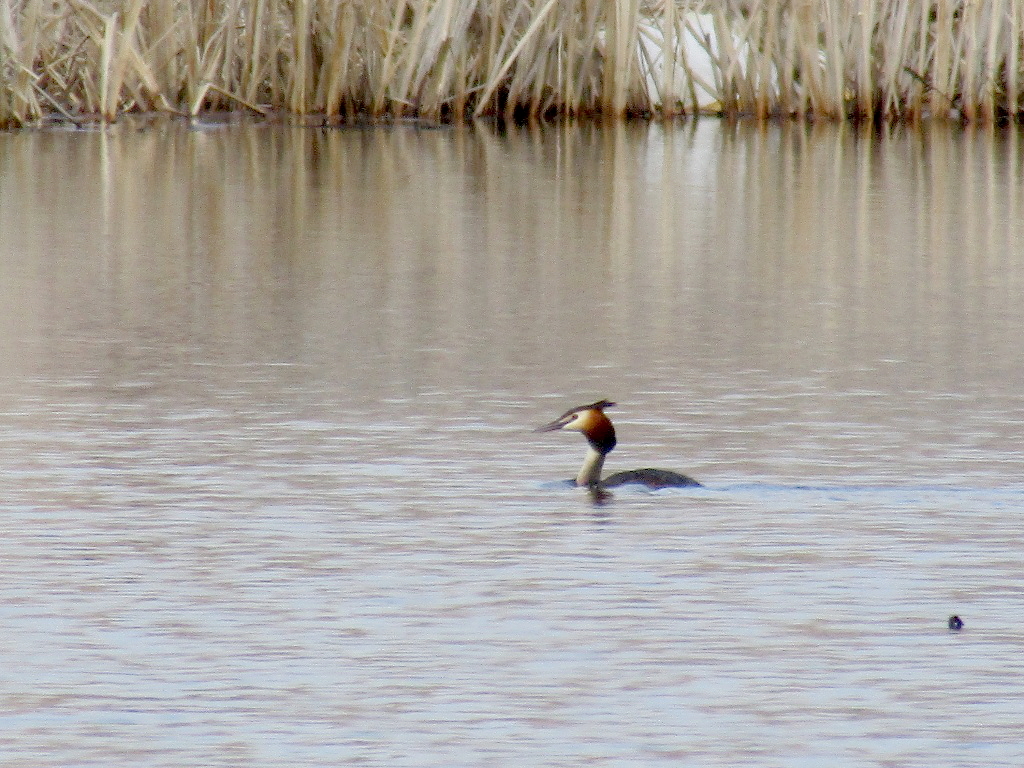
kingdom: Animalia
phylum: Chordata
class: Aves
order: Podicipediformes
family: Podicipedidae
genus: Podiceps
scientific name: Podiceps cristatus
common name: Great crested grebe
